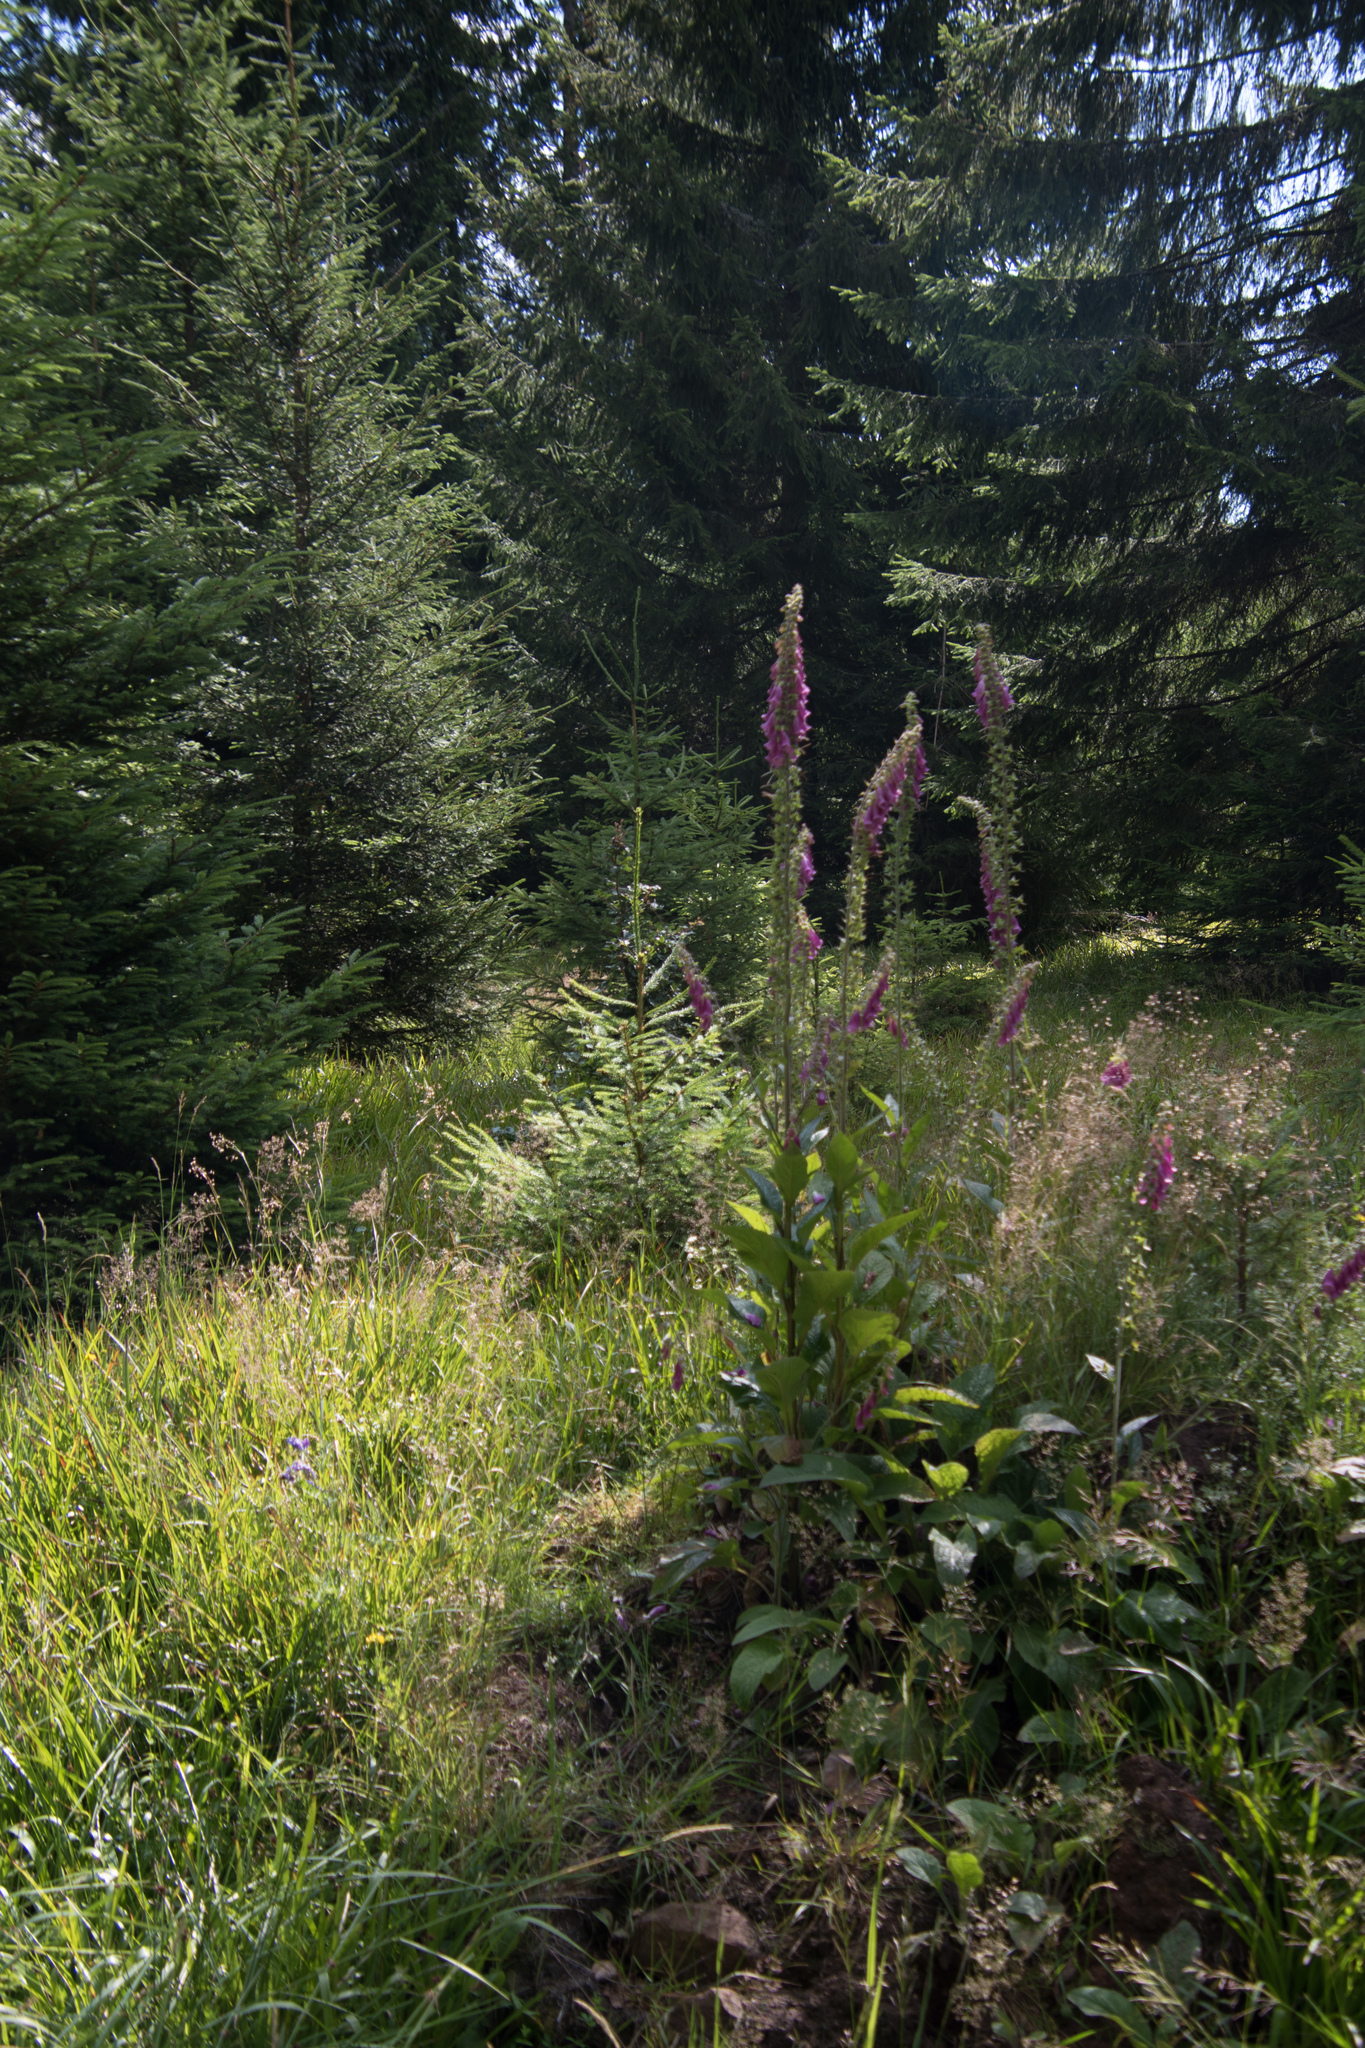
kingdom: Plantae
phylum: Tracheophyta
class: Magnoliopsida
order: Lamiales
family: Plantaginaceae
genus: Digitalis
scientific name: Digitalis purpurea
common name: Foxglove
